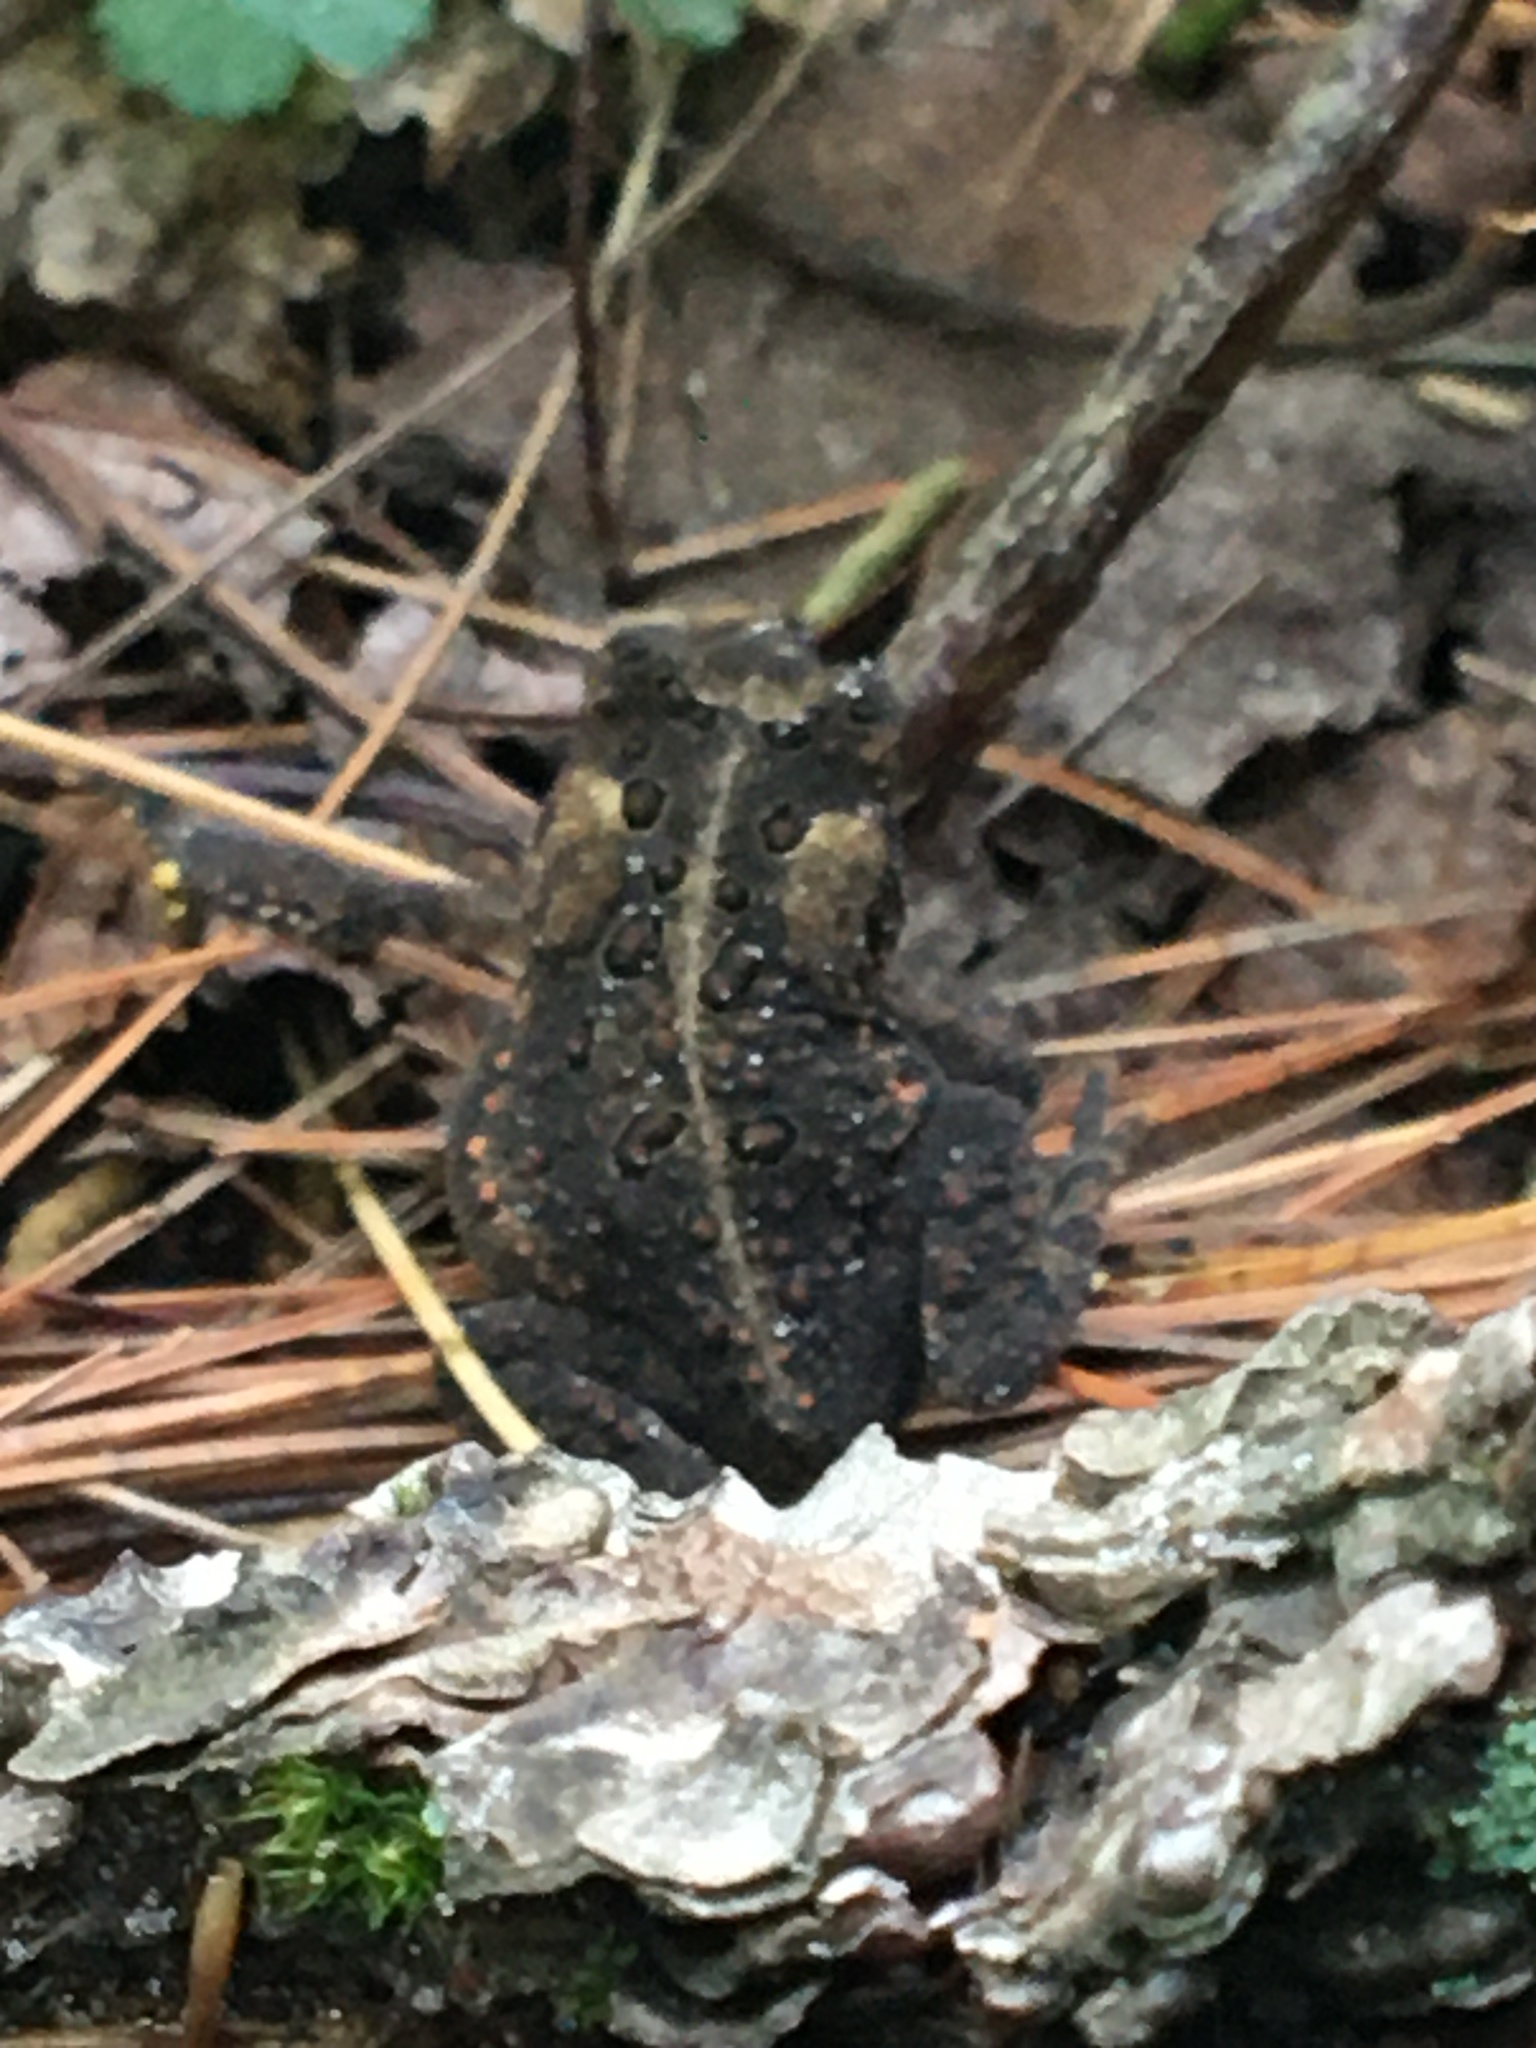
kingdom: Animalia
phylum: Chordata
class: Amphibia
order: Anura
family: Bufonidae
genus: Anaxyrus
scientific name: Anaxyrus americanus
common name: American toad
